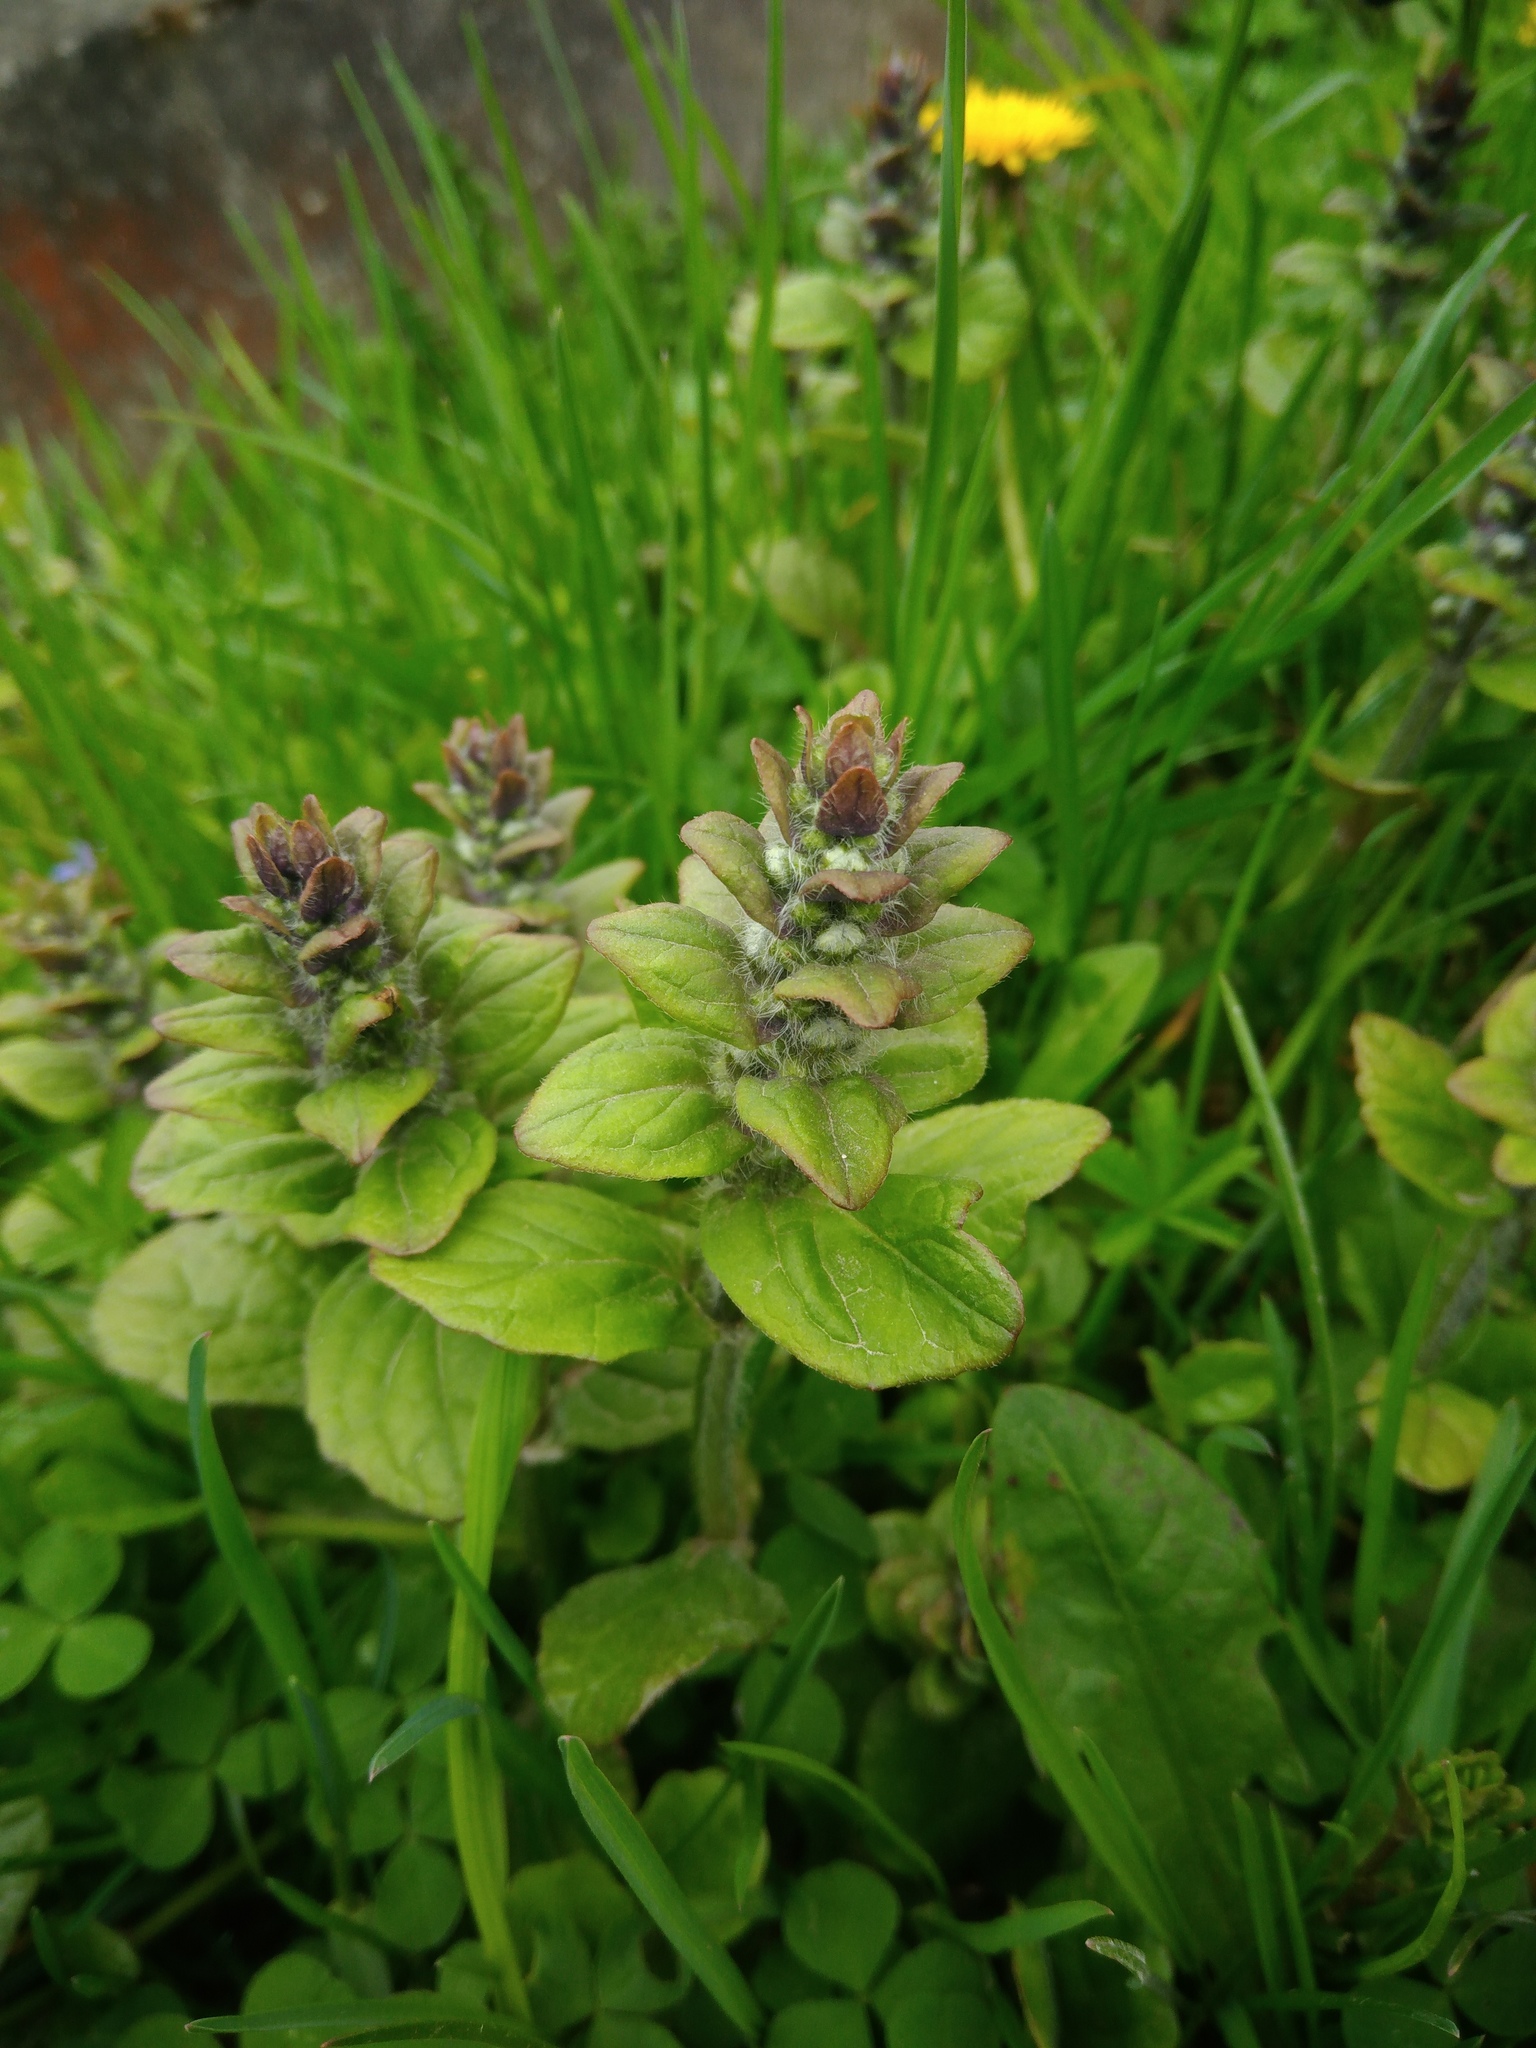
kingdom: Plantae
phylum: Tracheophyta
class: Magnoliopsida
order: Lamiales
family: Lamiaceae
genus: Ajuga
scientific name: Ajuga reptans
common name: Bugle
